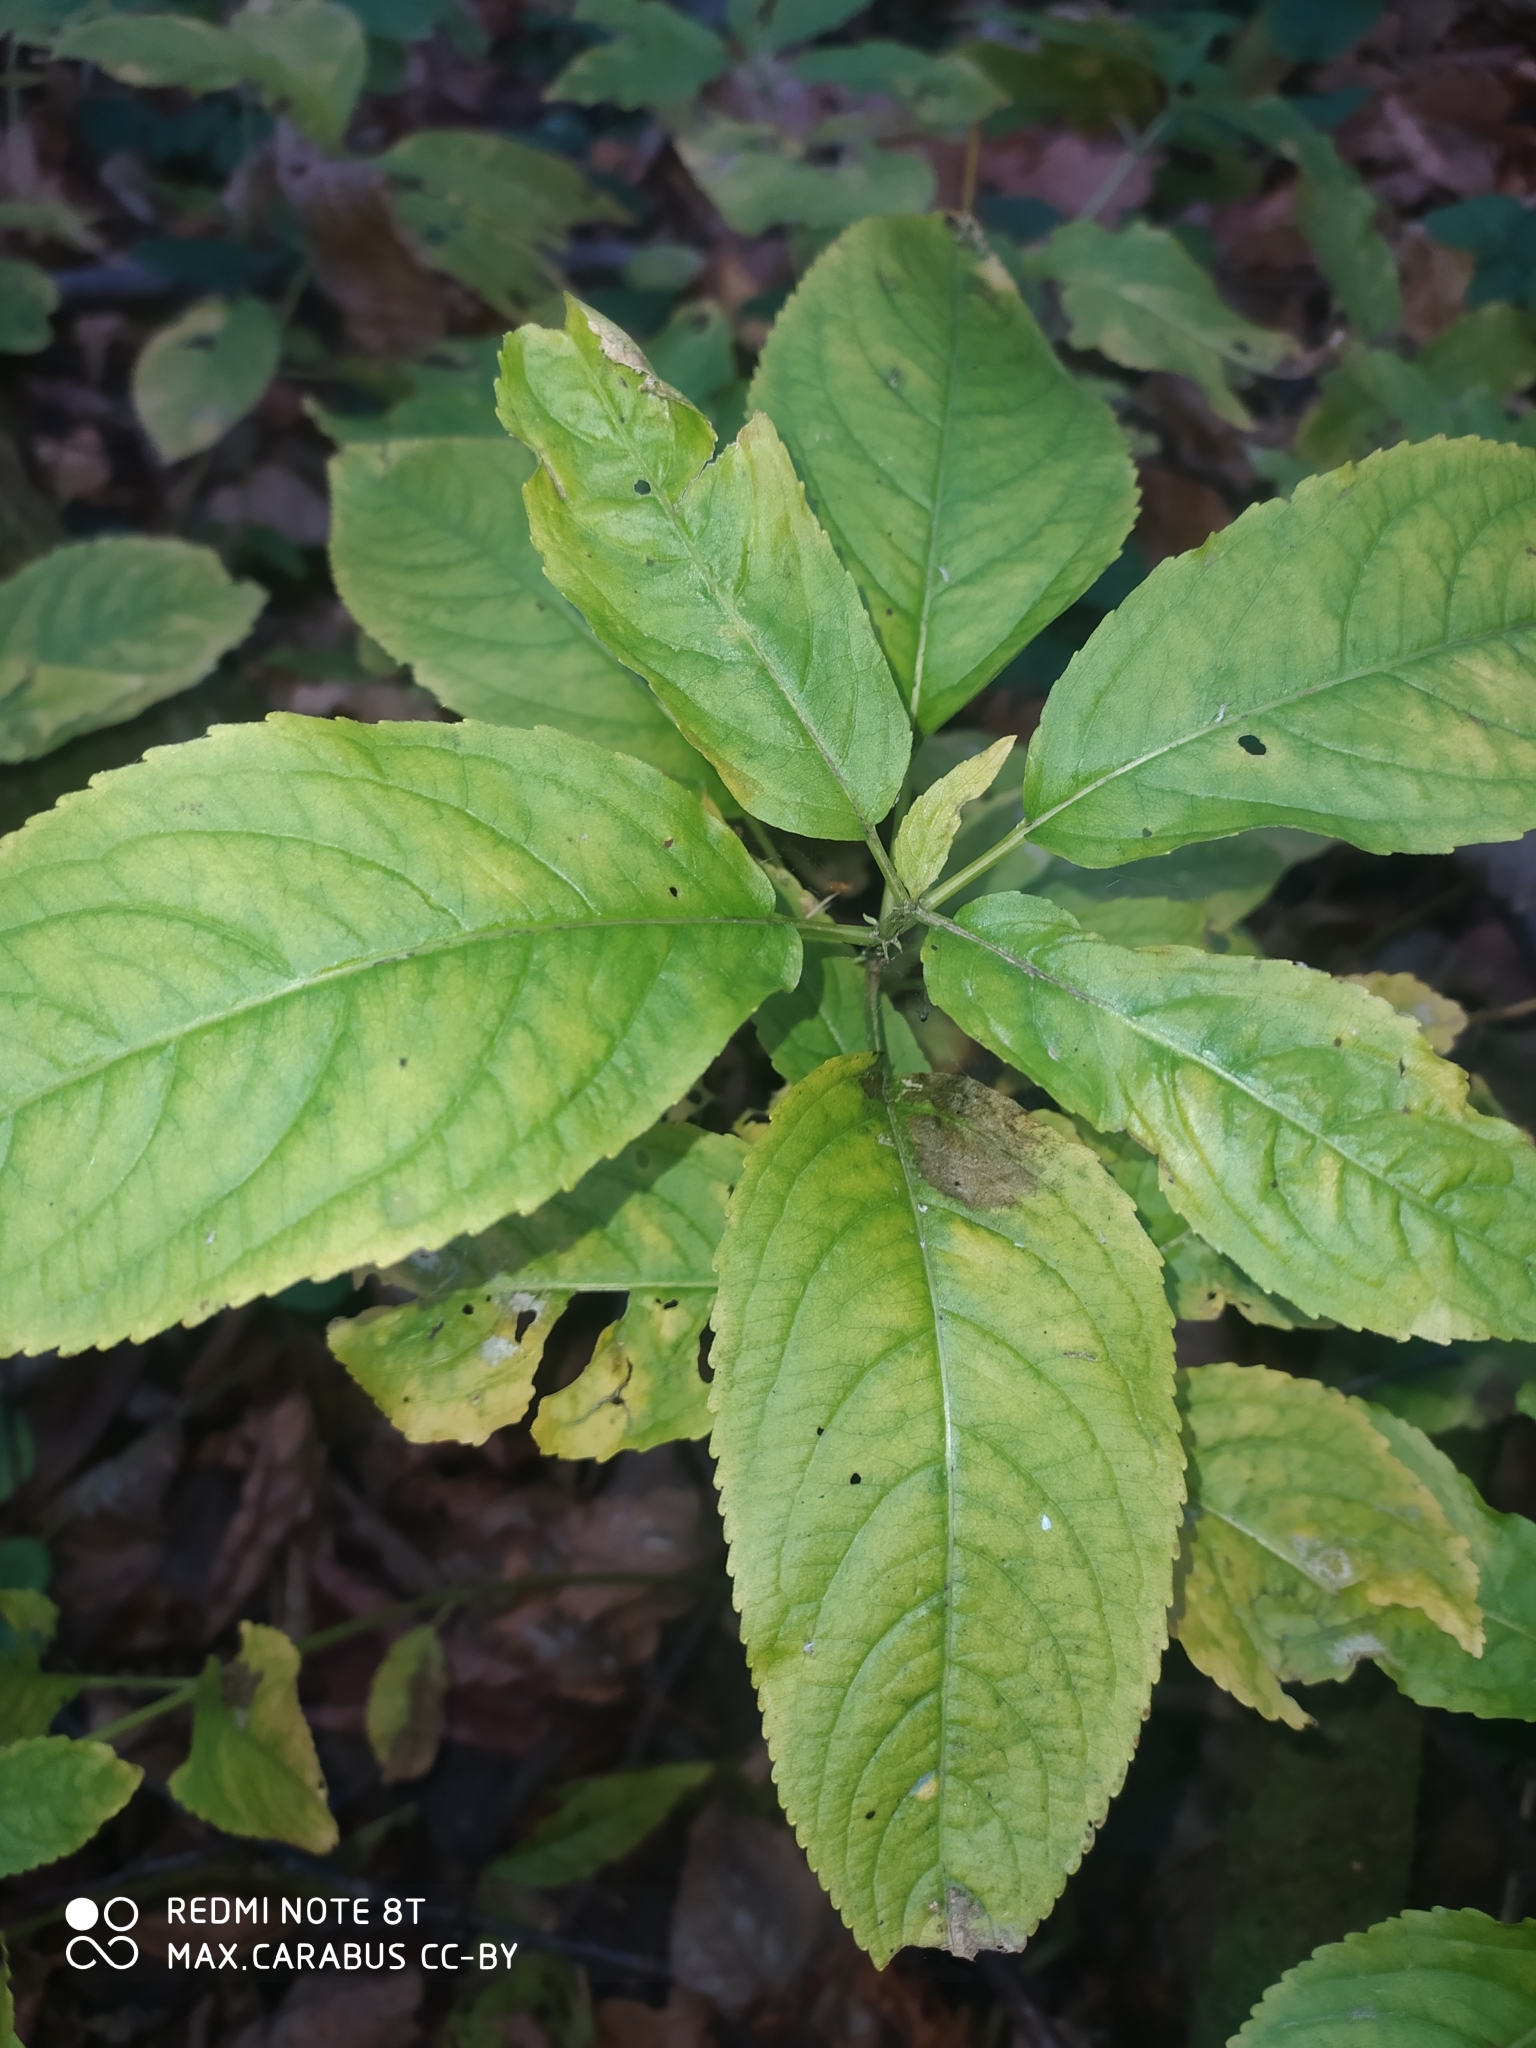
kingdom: Plantae
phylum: Tracheophyta
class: Magnoliopsida
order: Malpighiales
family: Euphorbiaceae
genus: Mercurialis
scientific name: Mercurialis perennis
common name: Dog mercury
